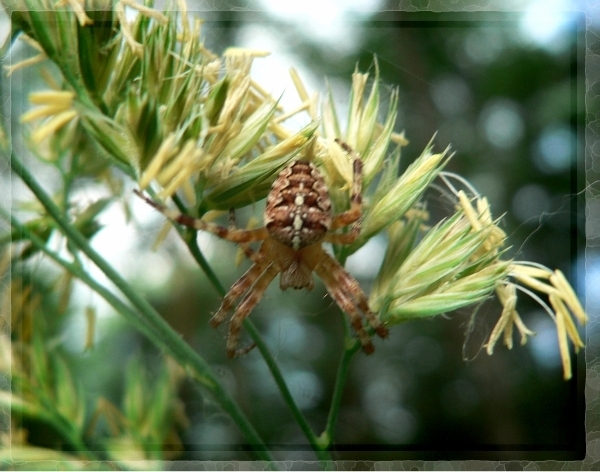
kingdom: Animalia
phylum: Arthropoda
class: Arachnida
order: Araneae
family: Araneidae
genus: Araneus
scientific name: Araneus diadematus
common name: Cross orbweaver
